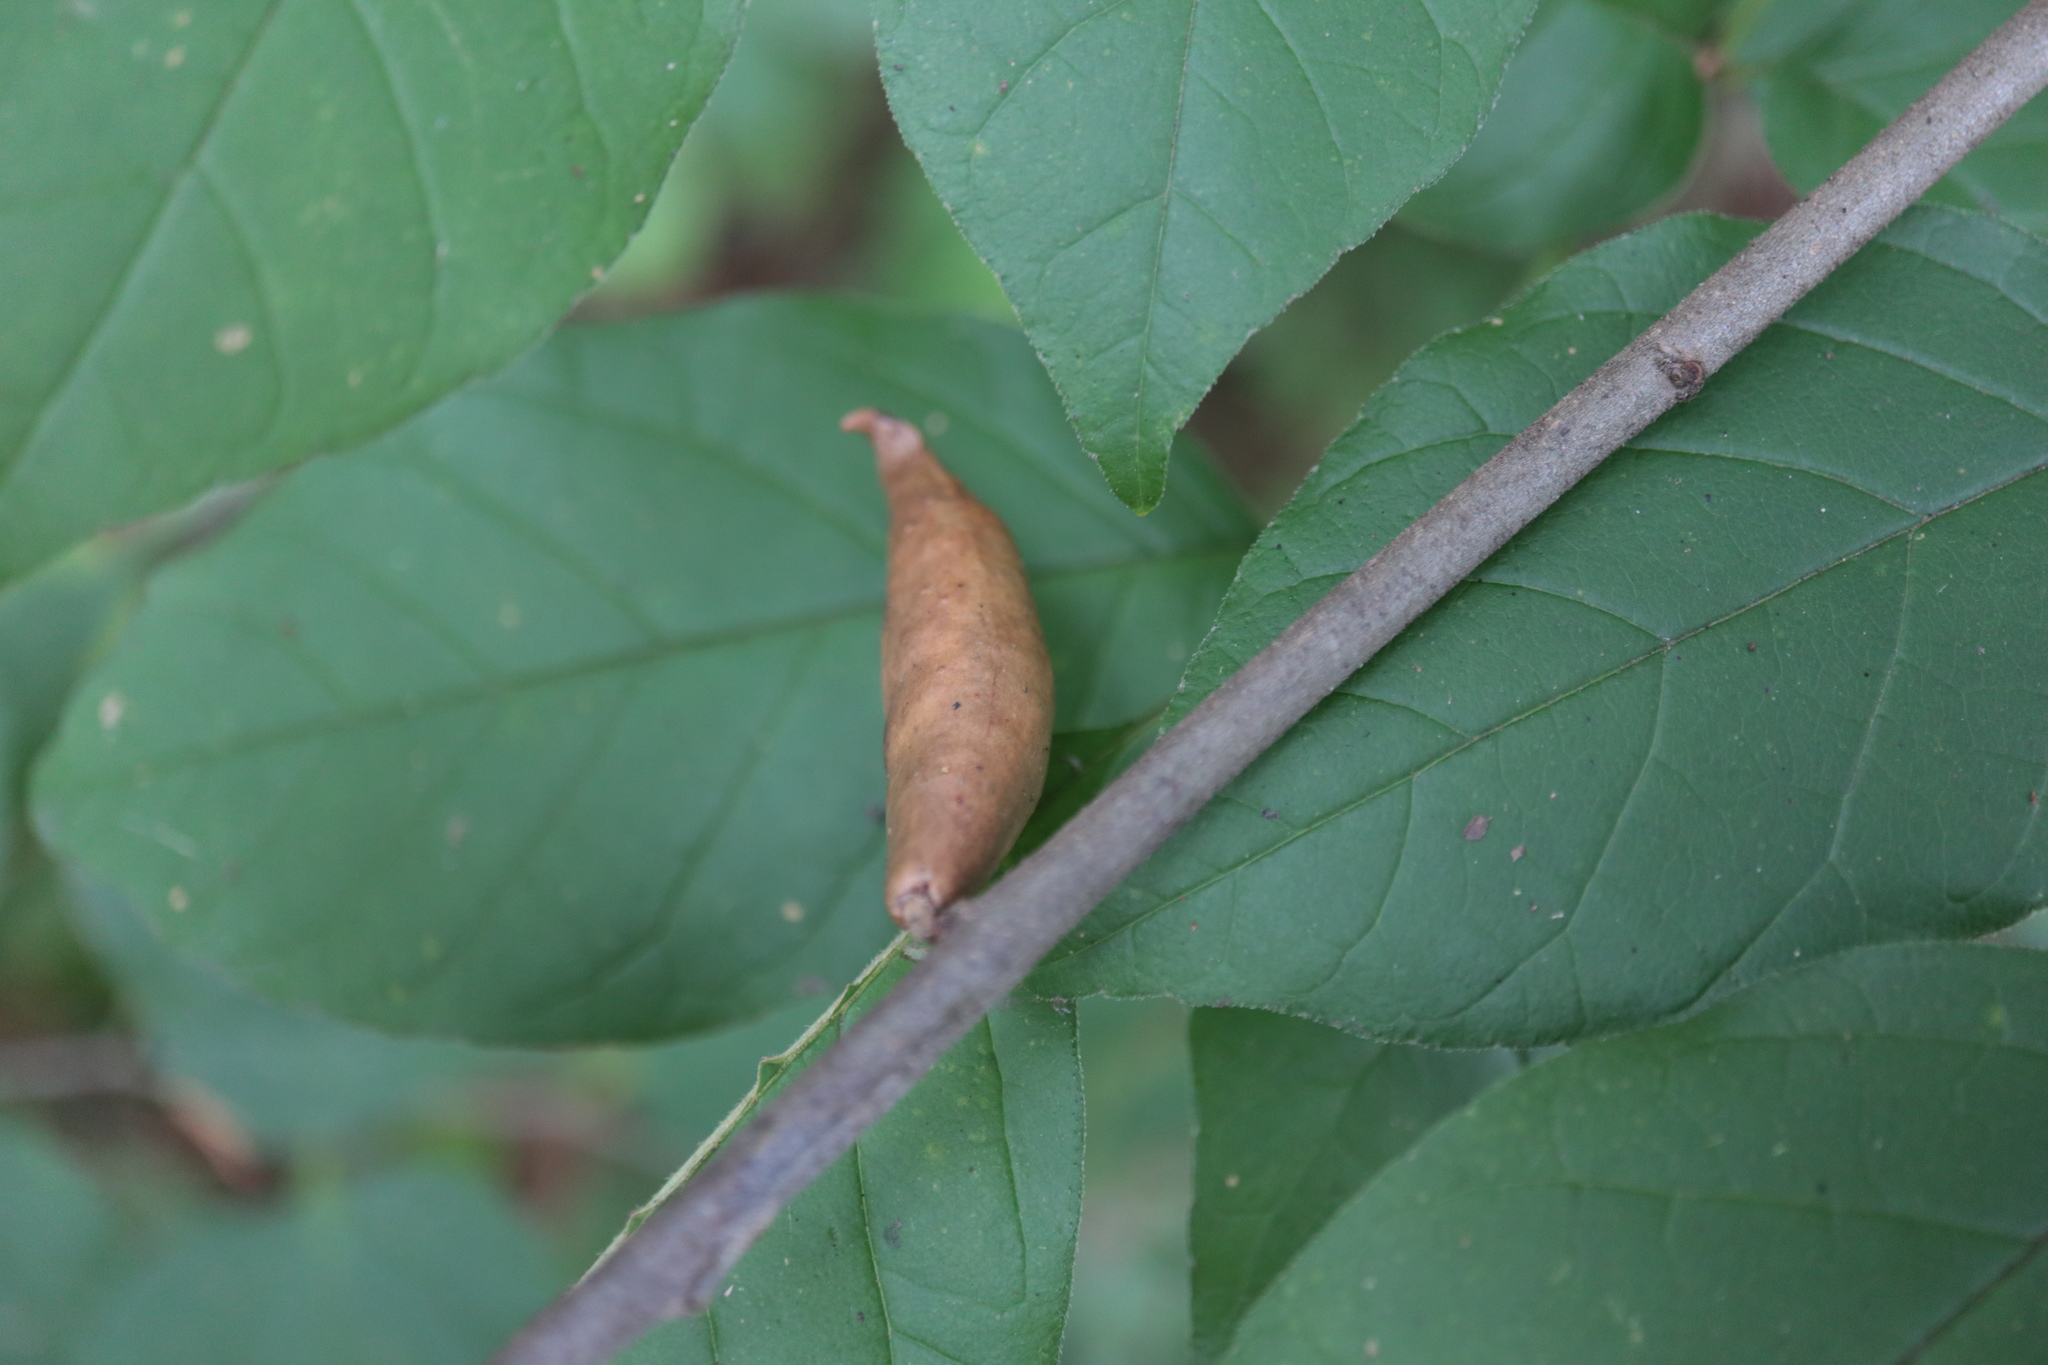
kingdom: Animalia
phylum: Arthropoda
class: Insecta
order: Hymenoptera
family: Cynipidae
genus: Amphibolips
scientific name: Amphibolips
